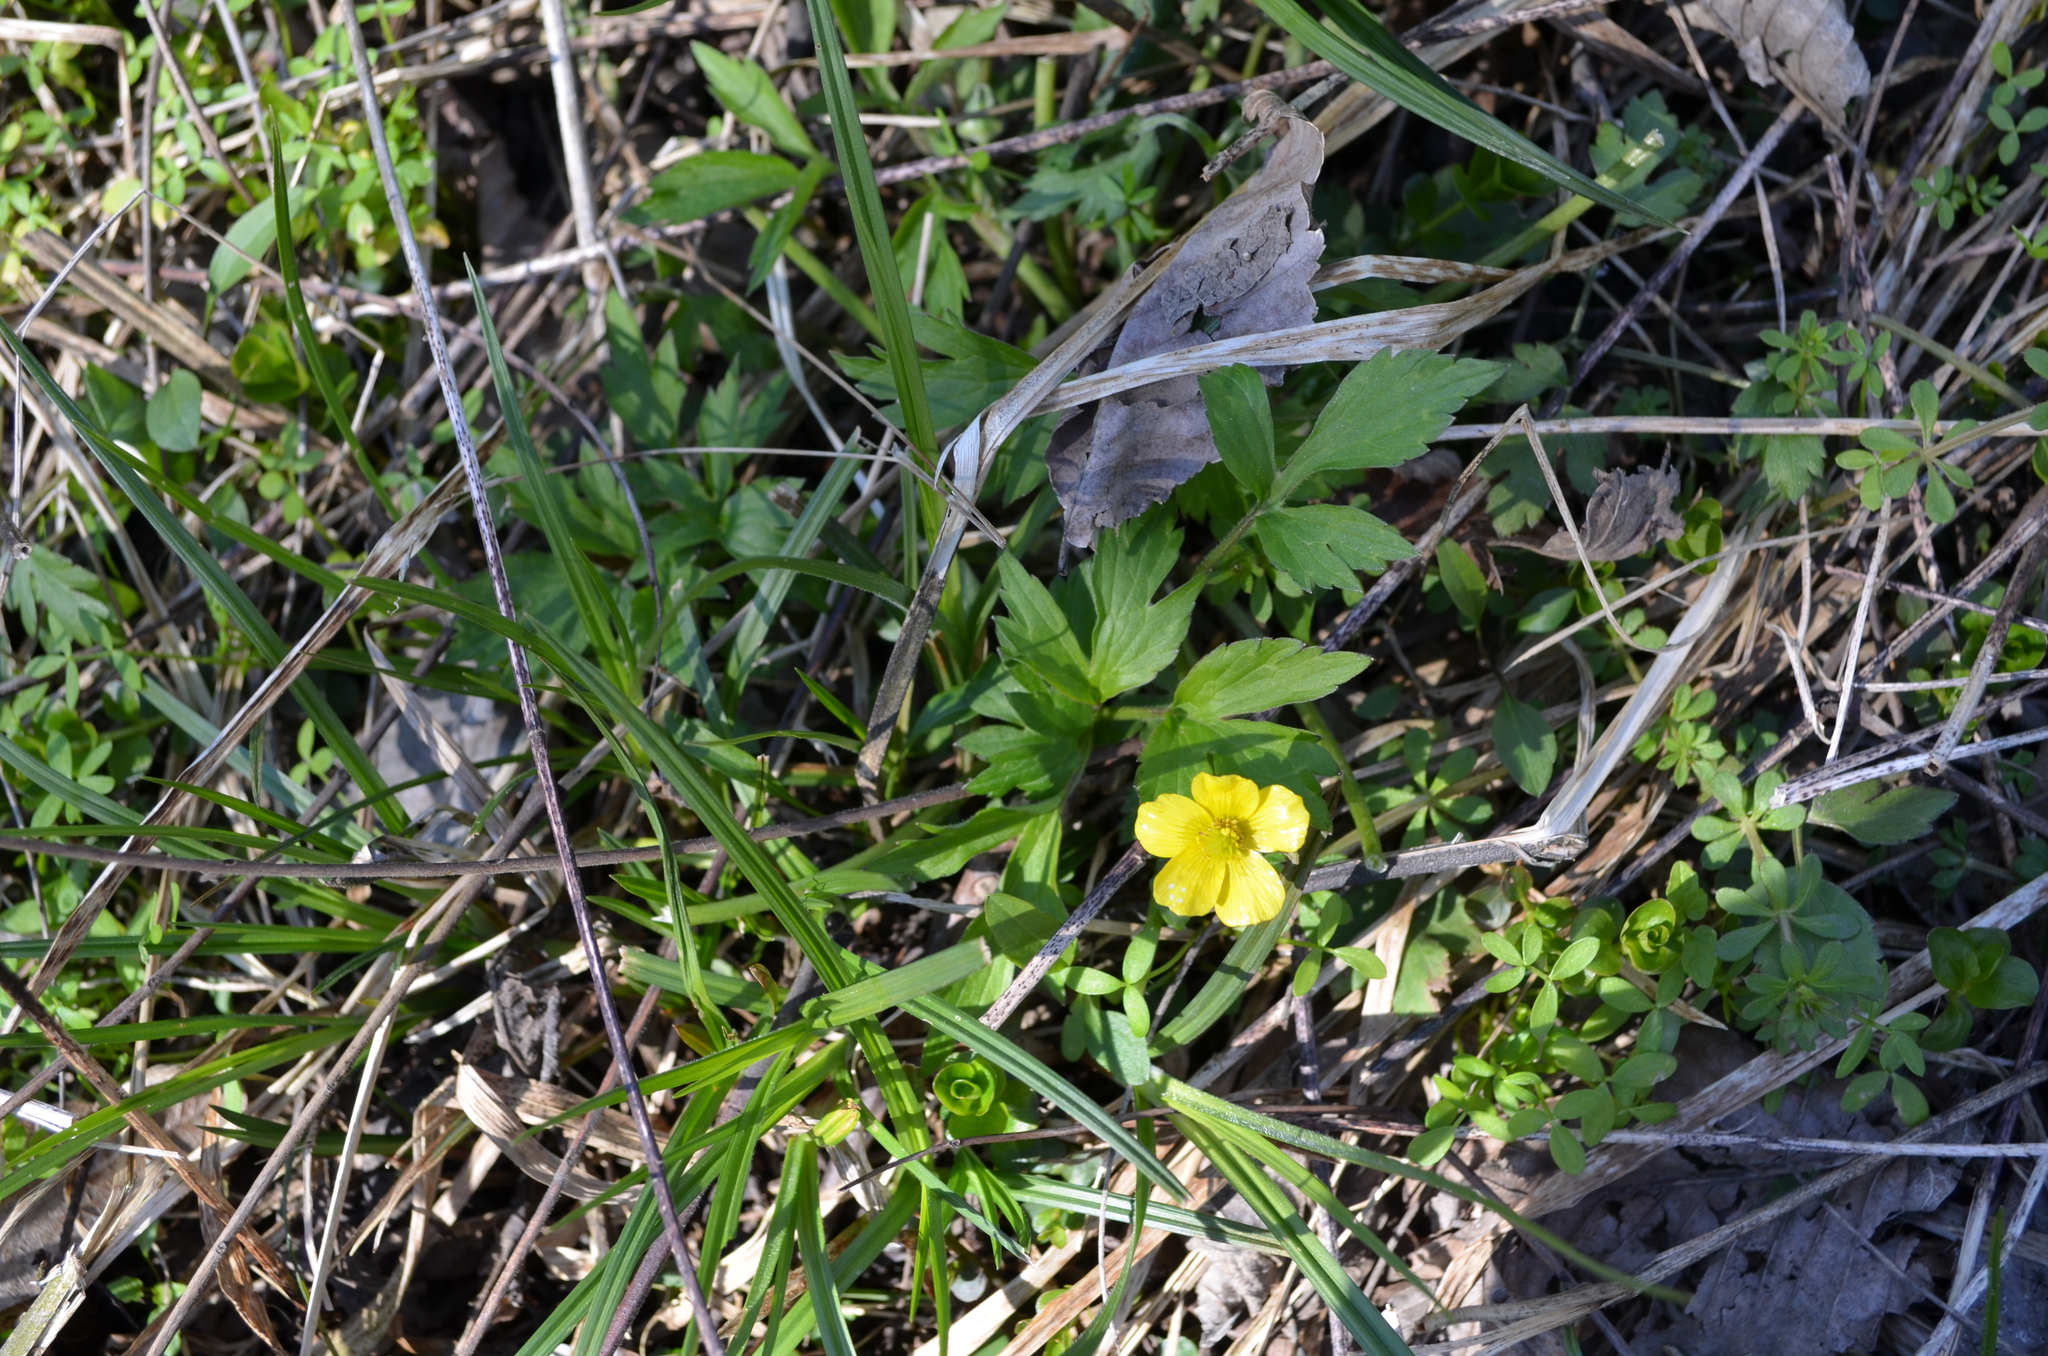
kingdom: Plantae
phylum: Tracheophyta
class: Magnoliopsida
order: Ranunculales
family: Ranunculaceae
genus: Ranunculus
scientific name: Ranunculus hispidus
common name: Bristly buttercup
